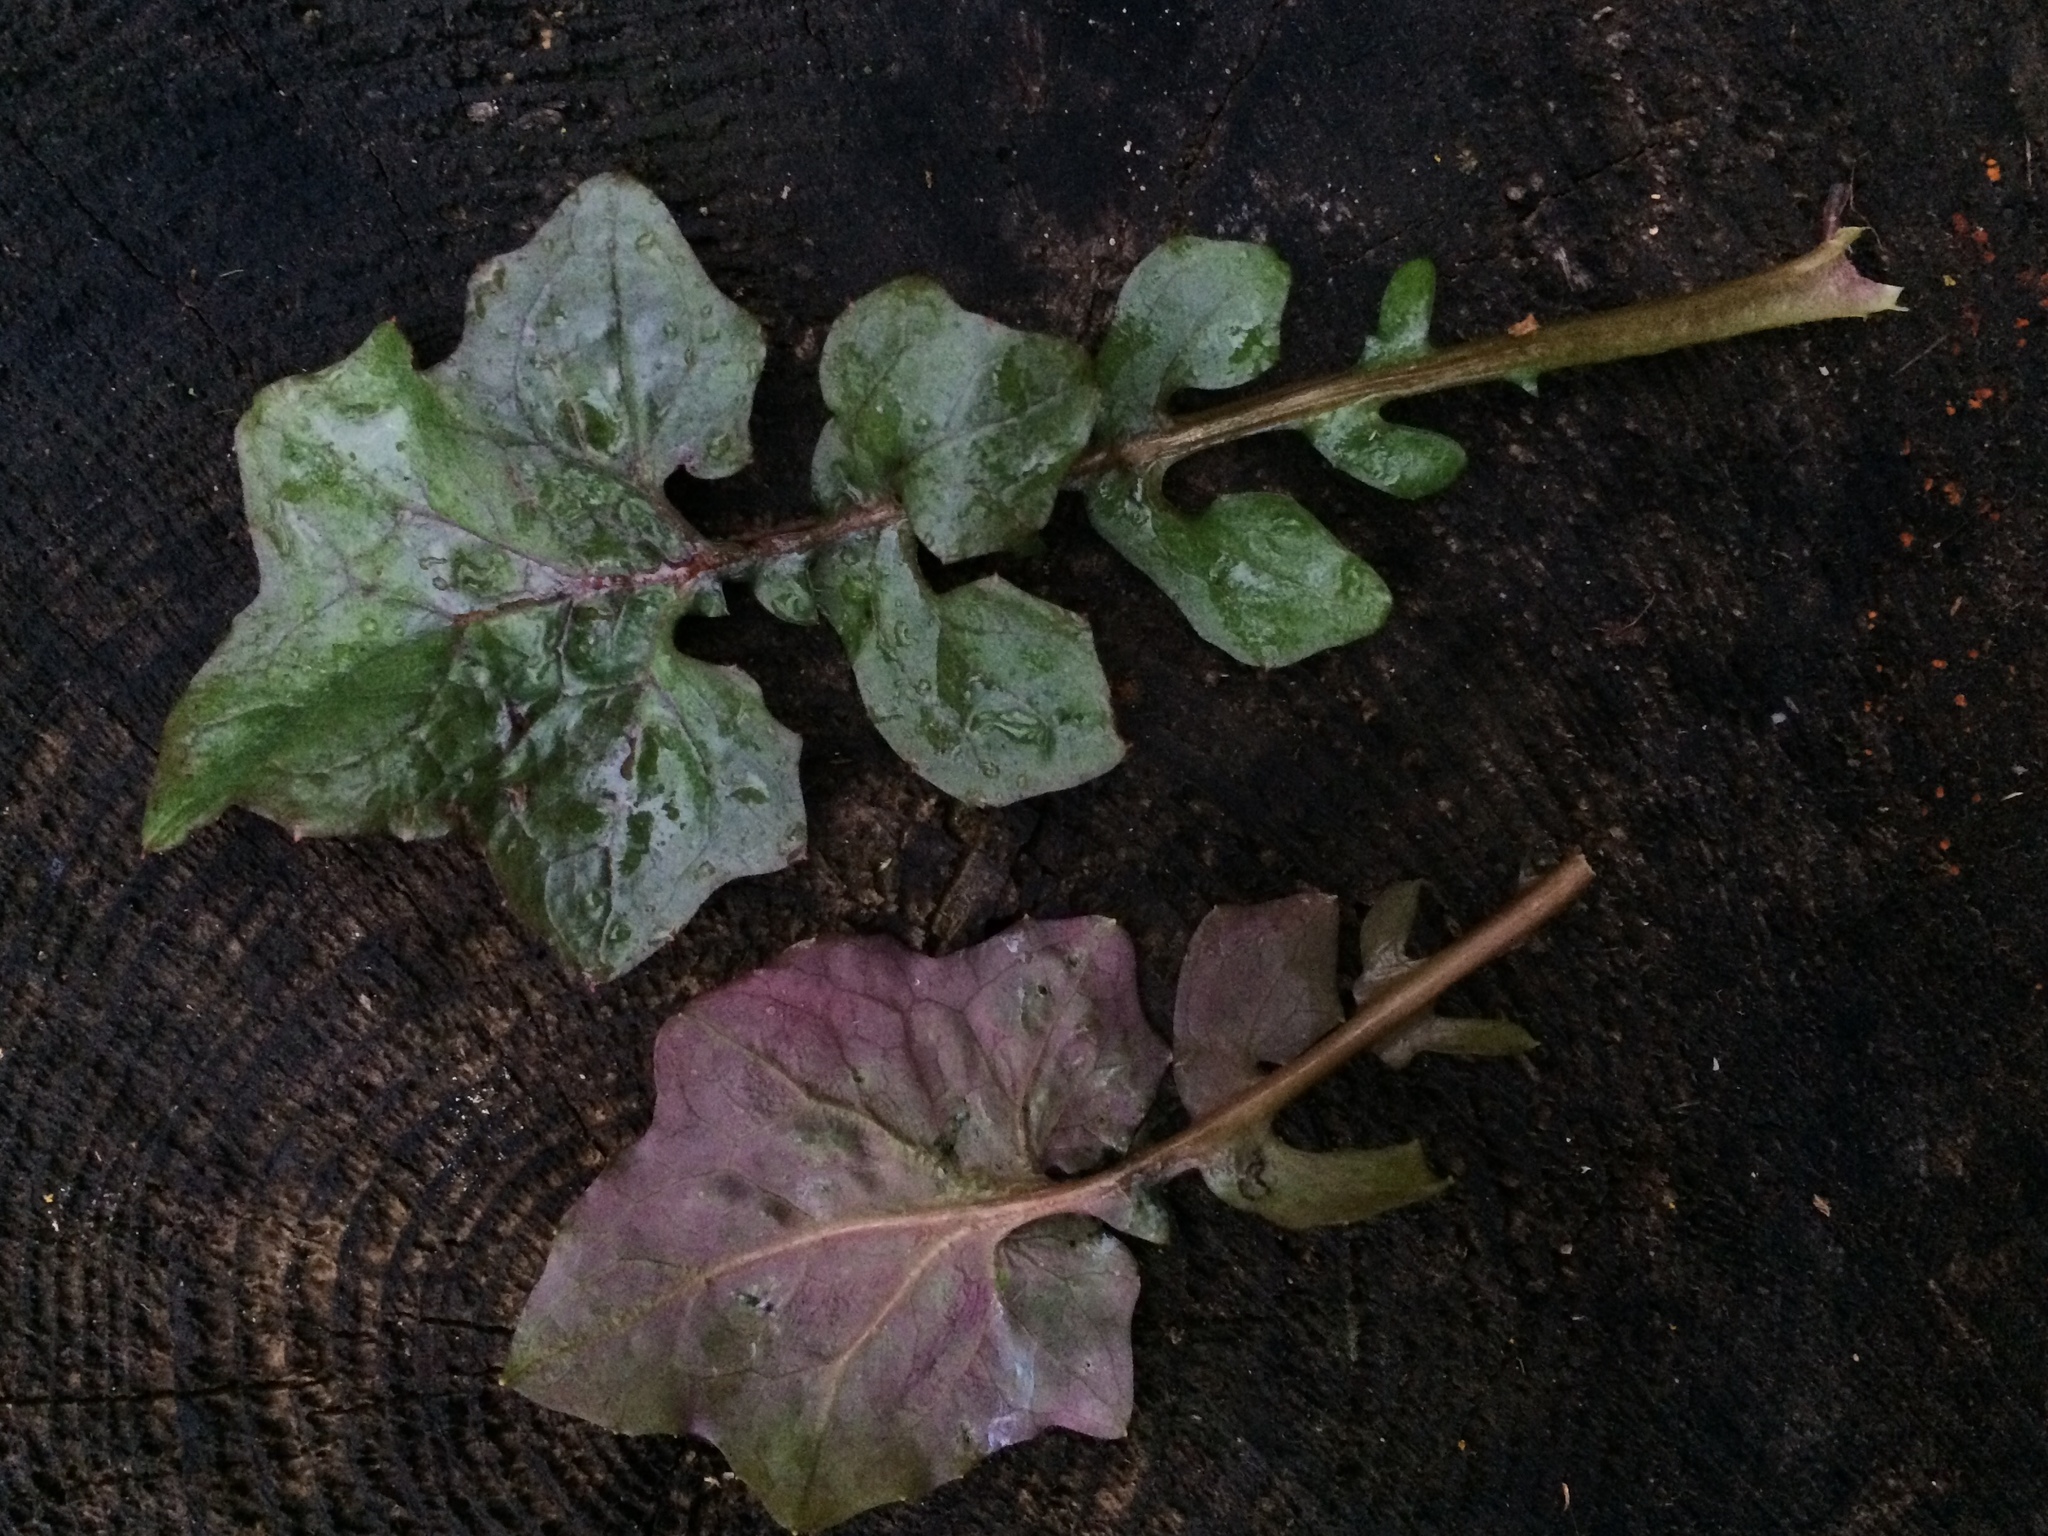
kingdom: Plantae
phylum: Tracheophyta
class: Magnoliopsida
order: Asterales
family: Asteraceae
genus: Mycelis
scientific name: Mycelis muralis
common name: Wall lettuce
